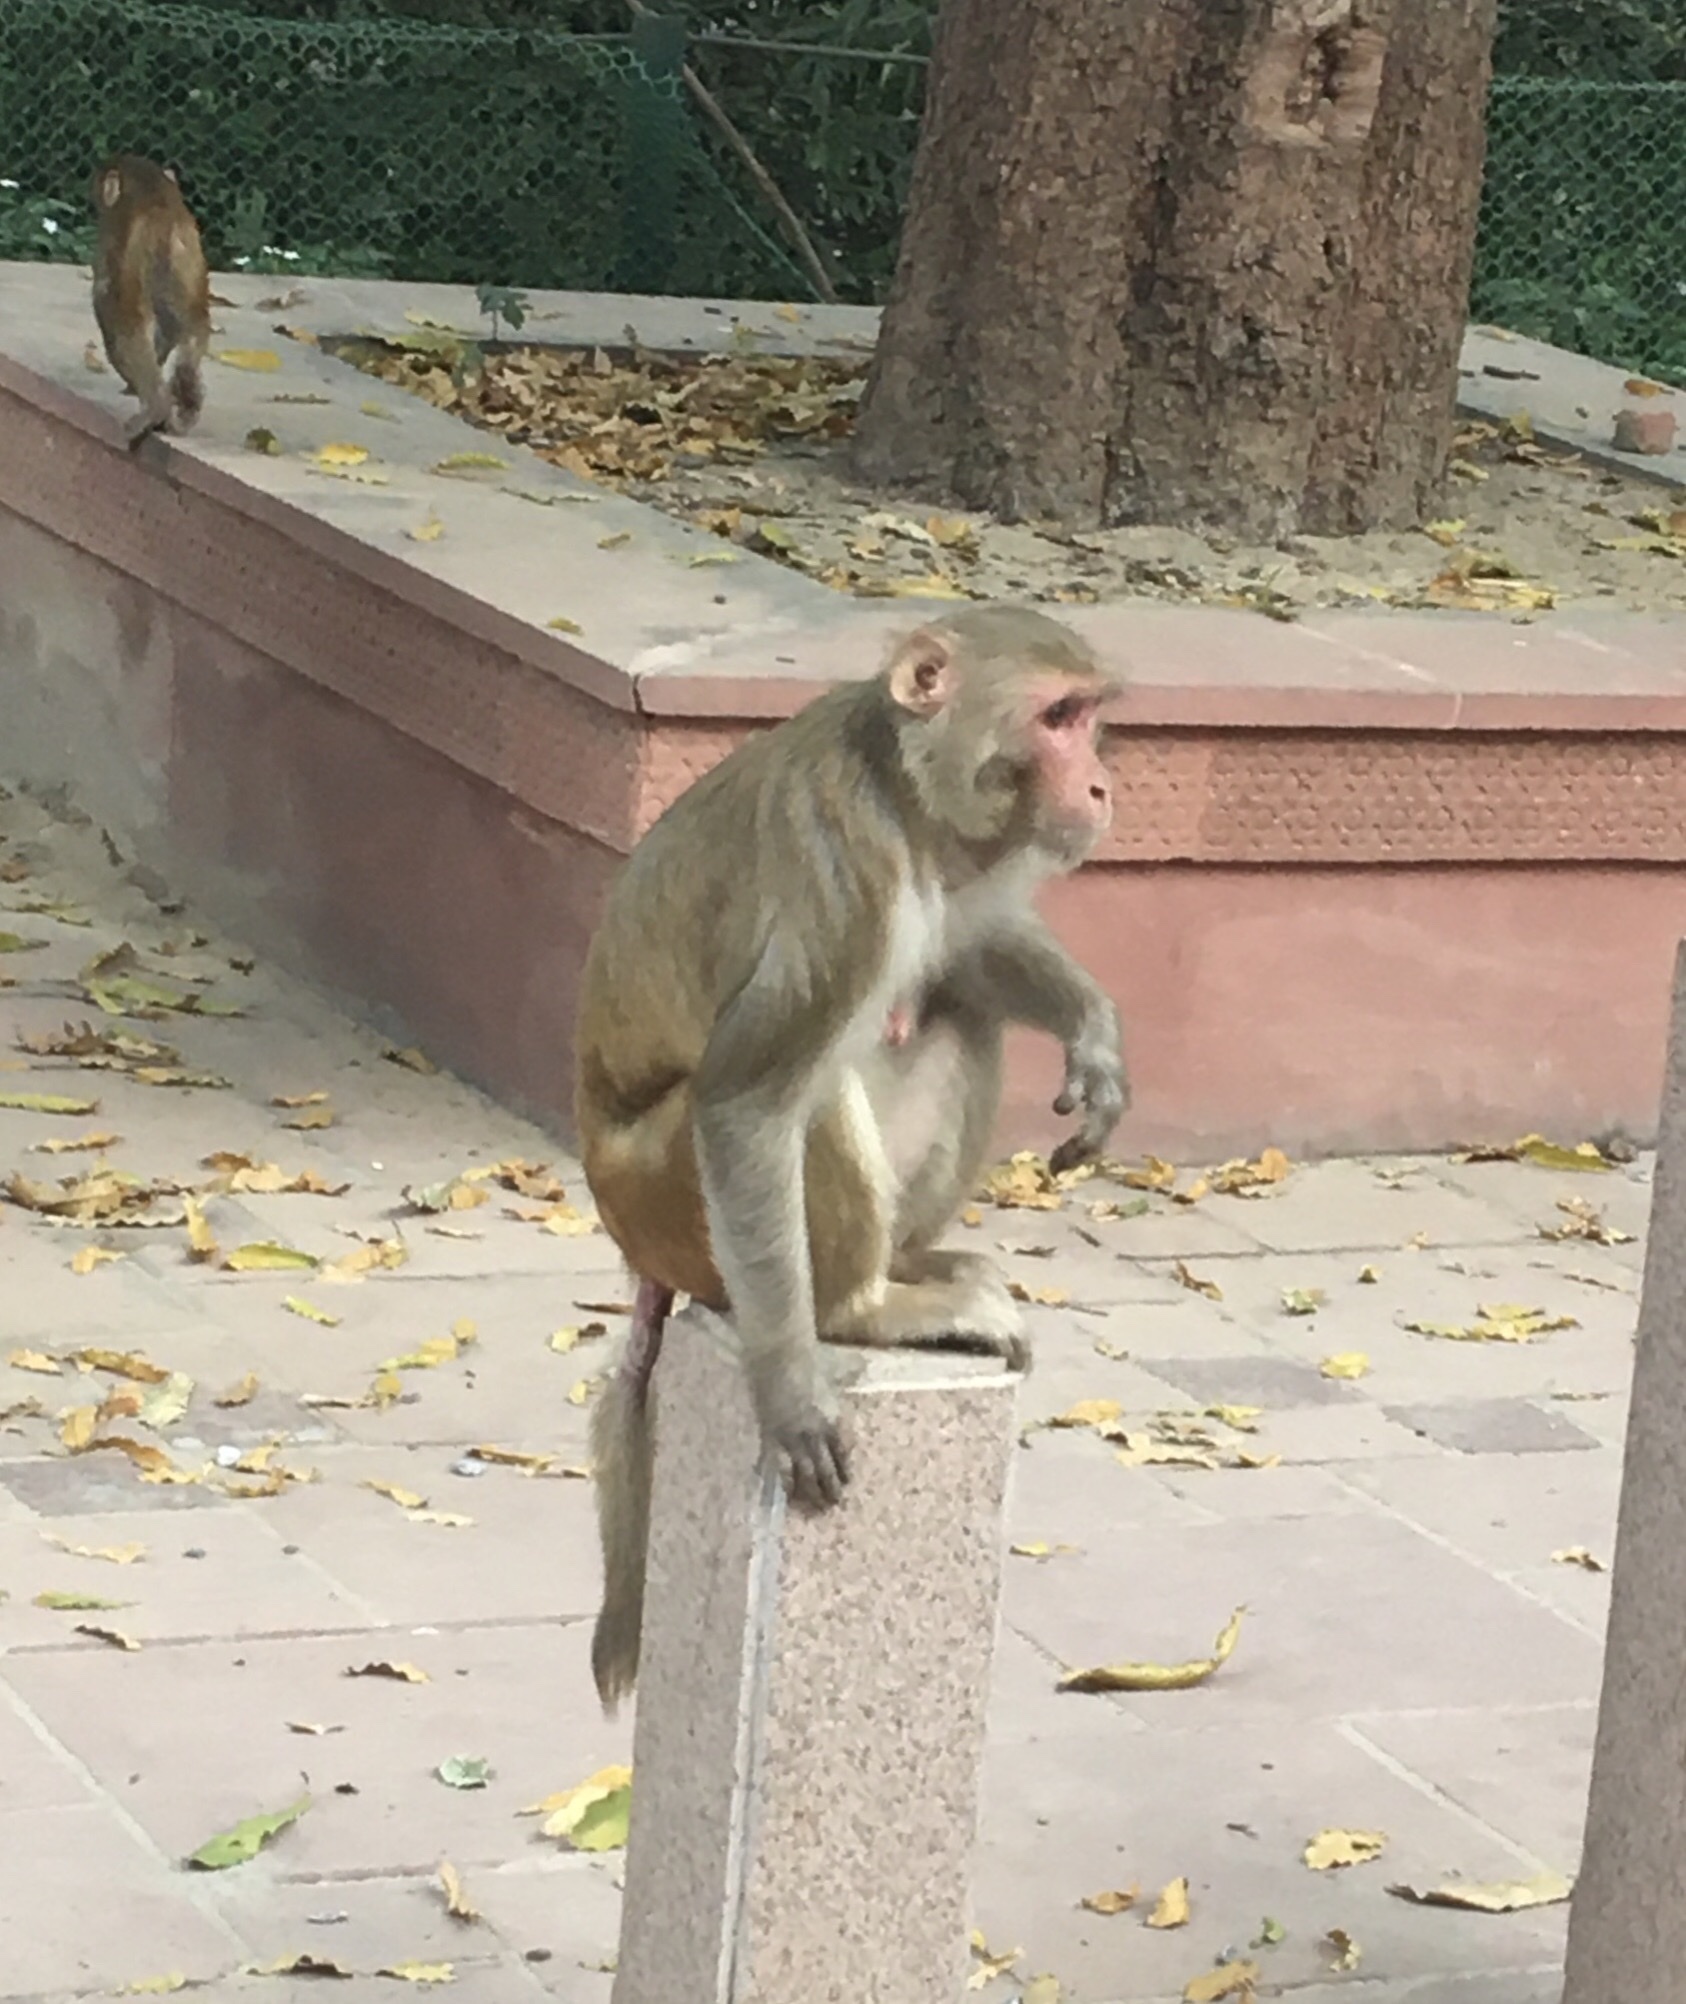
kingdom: Animalia
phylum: Chordata
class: Mammalia
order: Primates
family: Cercopithecidae
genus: Macaca
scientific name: Macaca mulatta
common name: Rhesus monkey
